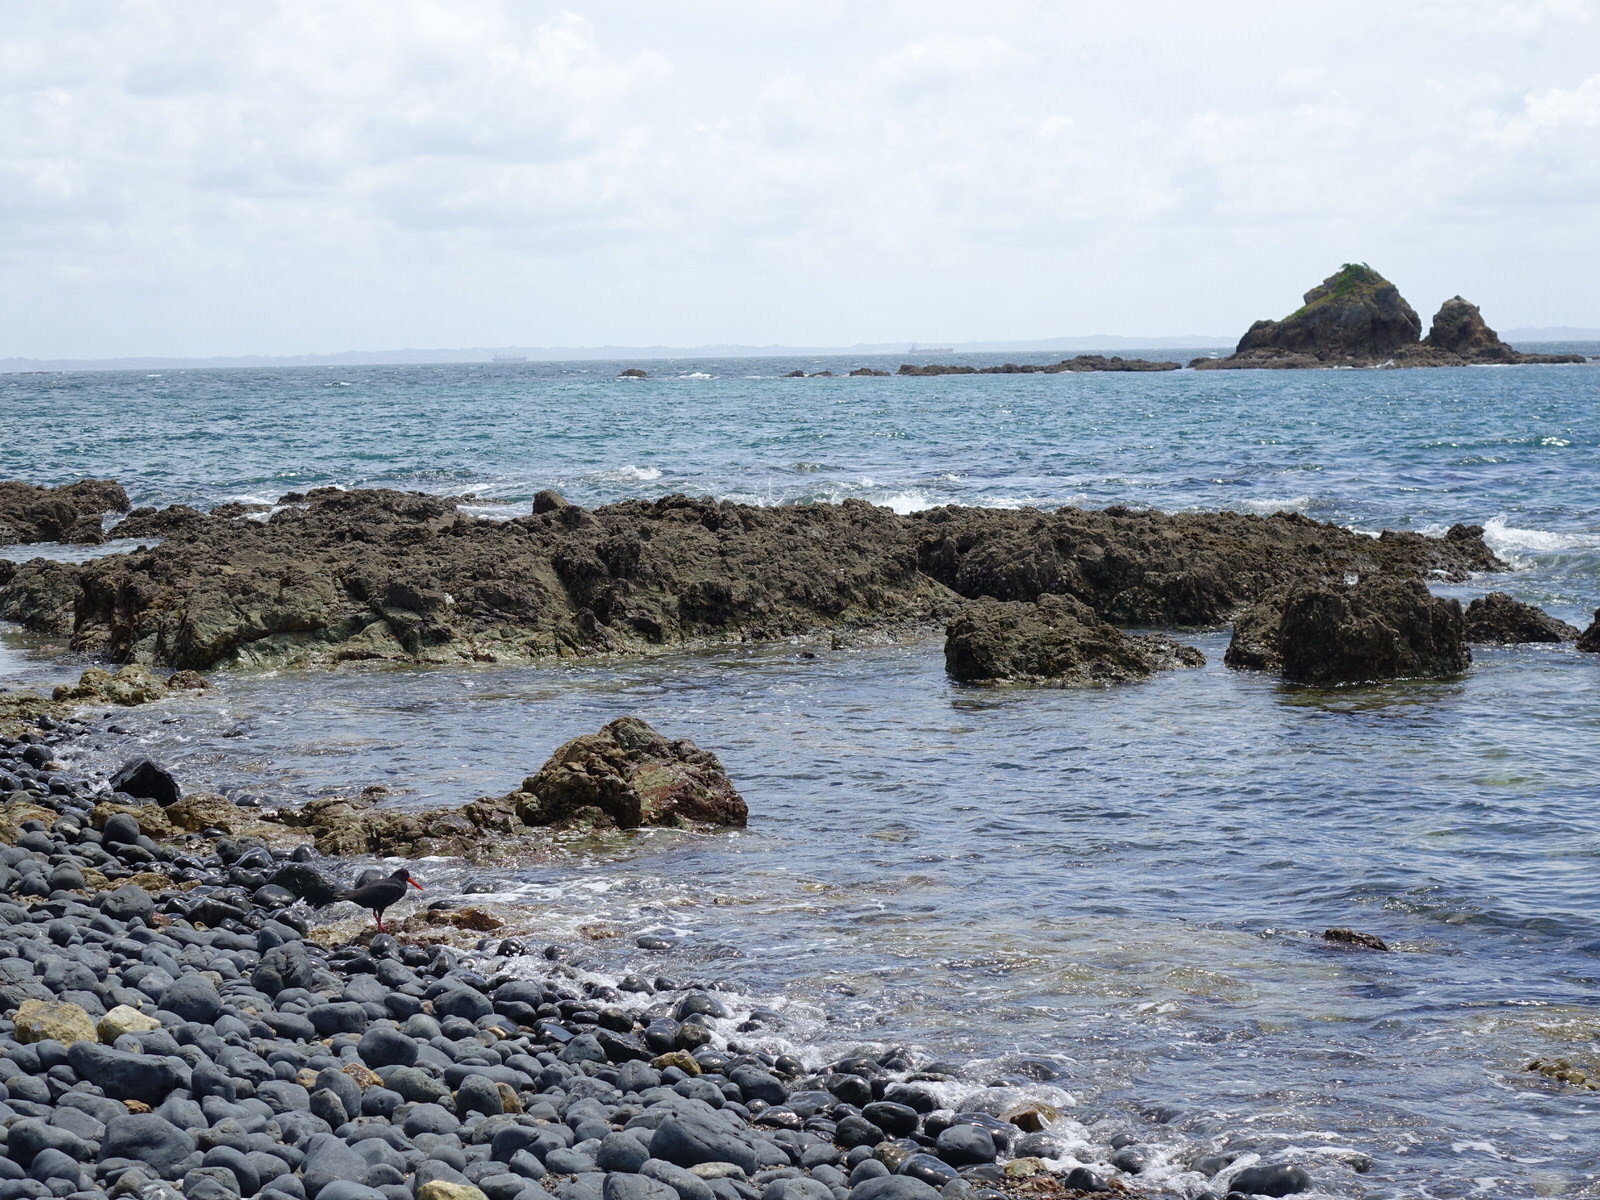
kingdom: Animalia
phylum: Chordata
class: Aves
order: Charadriiformes
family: Haematopodidae
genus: Haematopus
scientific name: Haematopus unicolor
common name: Variable oystercatcher
